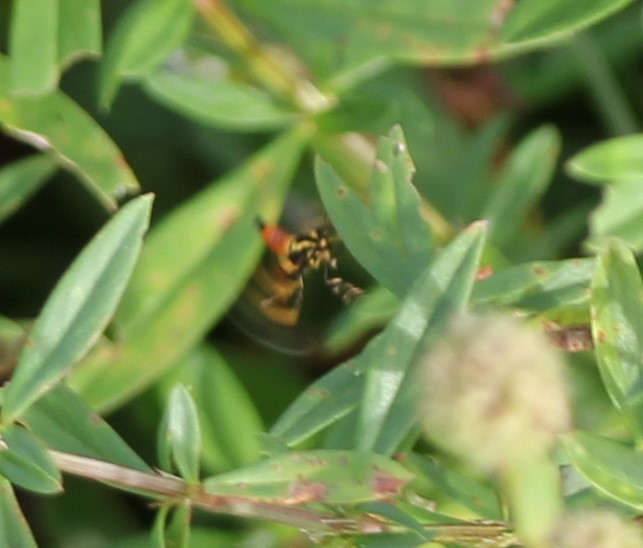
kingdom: Animalia
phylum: Arthropoda
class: Insecta
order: Lepidoptera
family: Crambidae
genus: Syngamia
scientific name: Syngamia florella
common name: Orange-spotted flower moth
